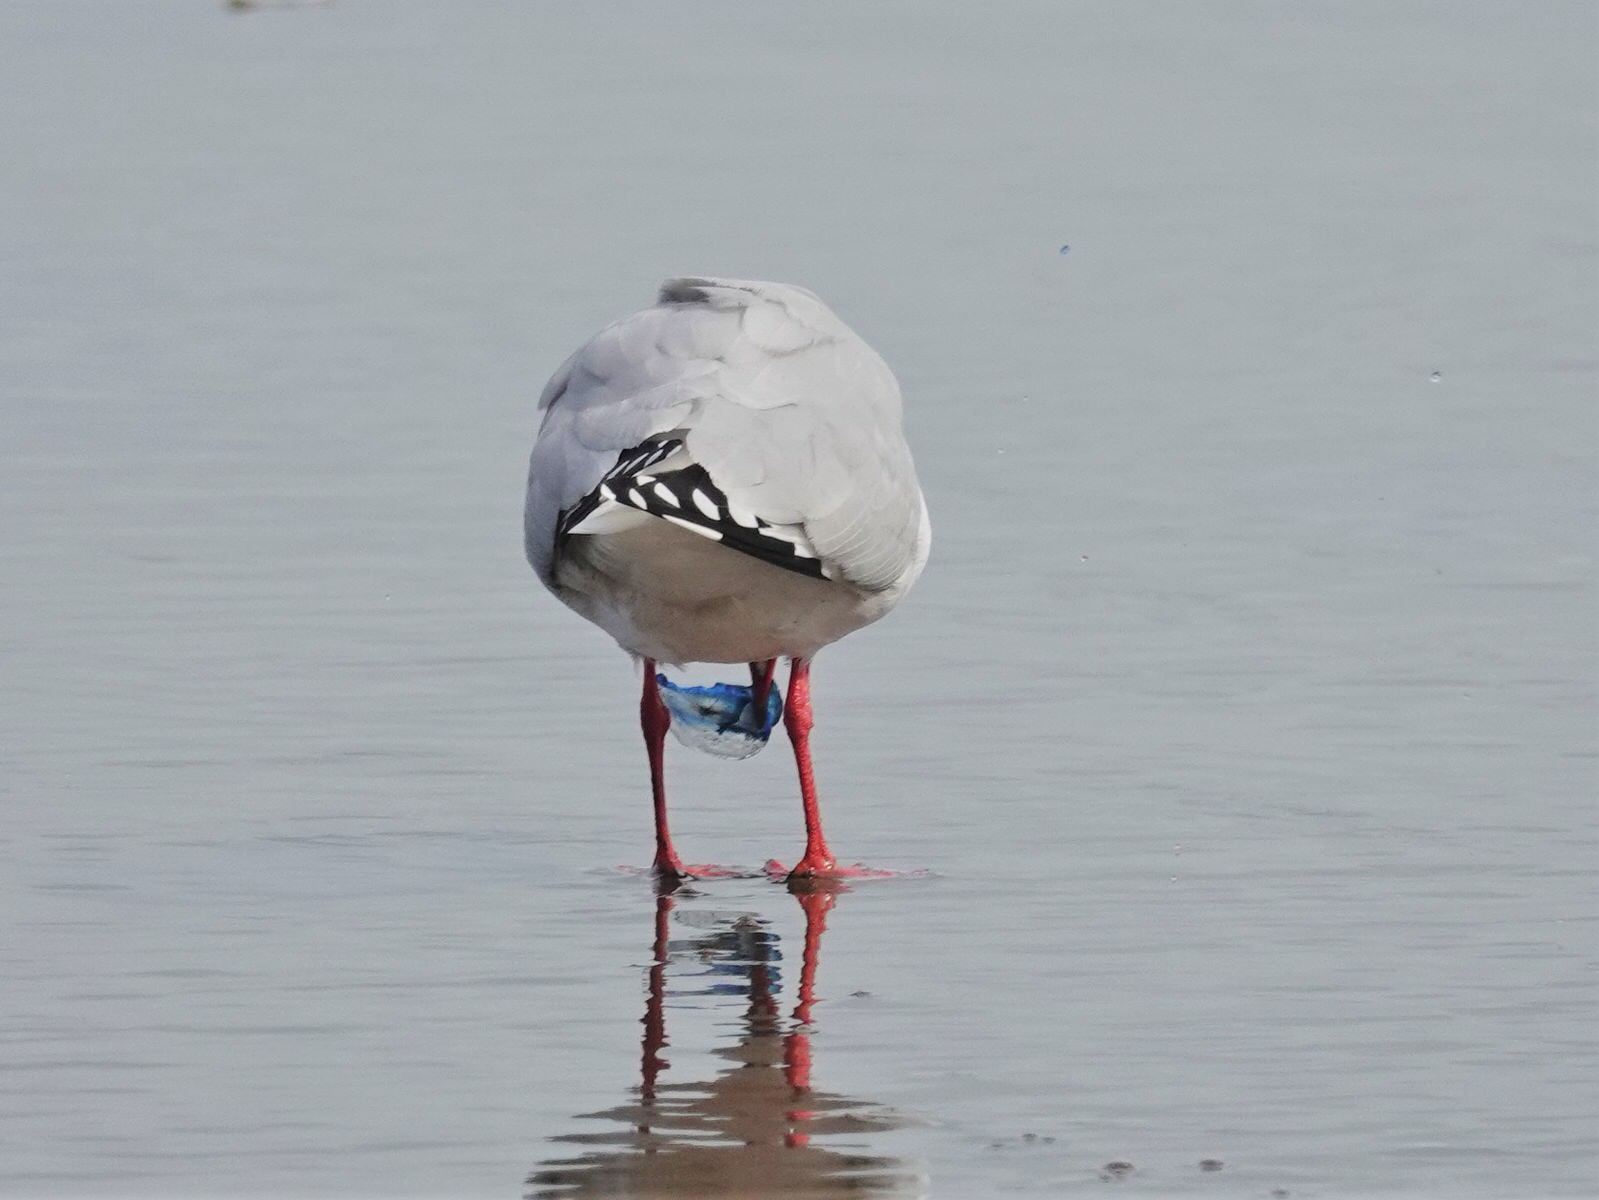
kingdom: Animalia
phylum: Chordata
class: Aves
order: Charadriiformes
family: Laridae
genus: Chroicocephalus
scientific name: Chroicocephalus novaehollandiae
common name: Silver gull
